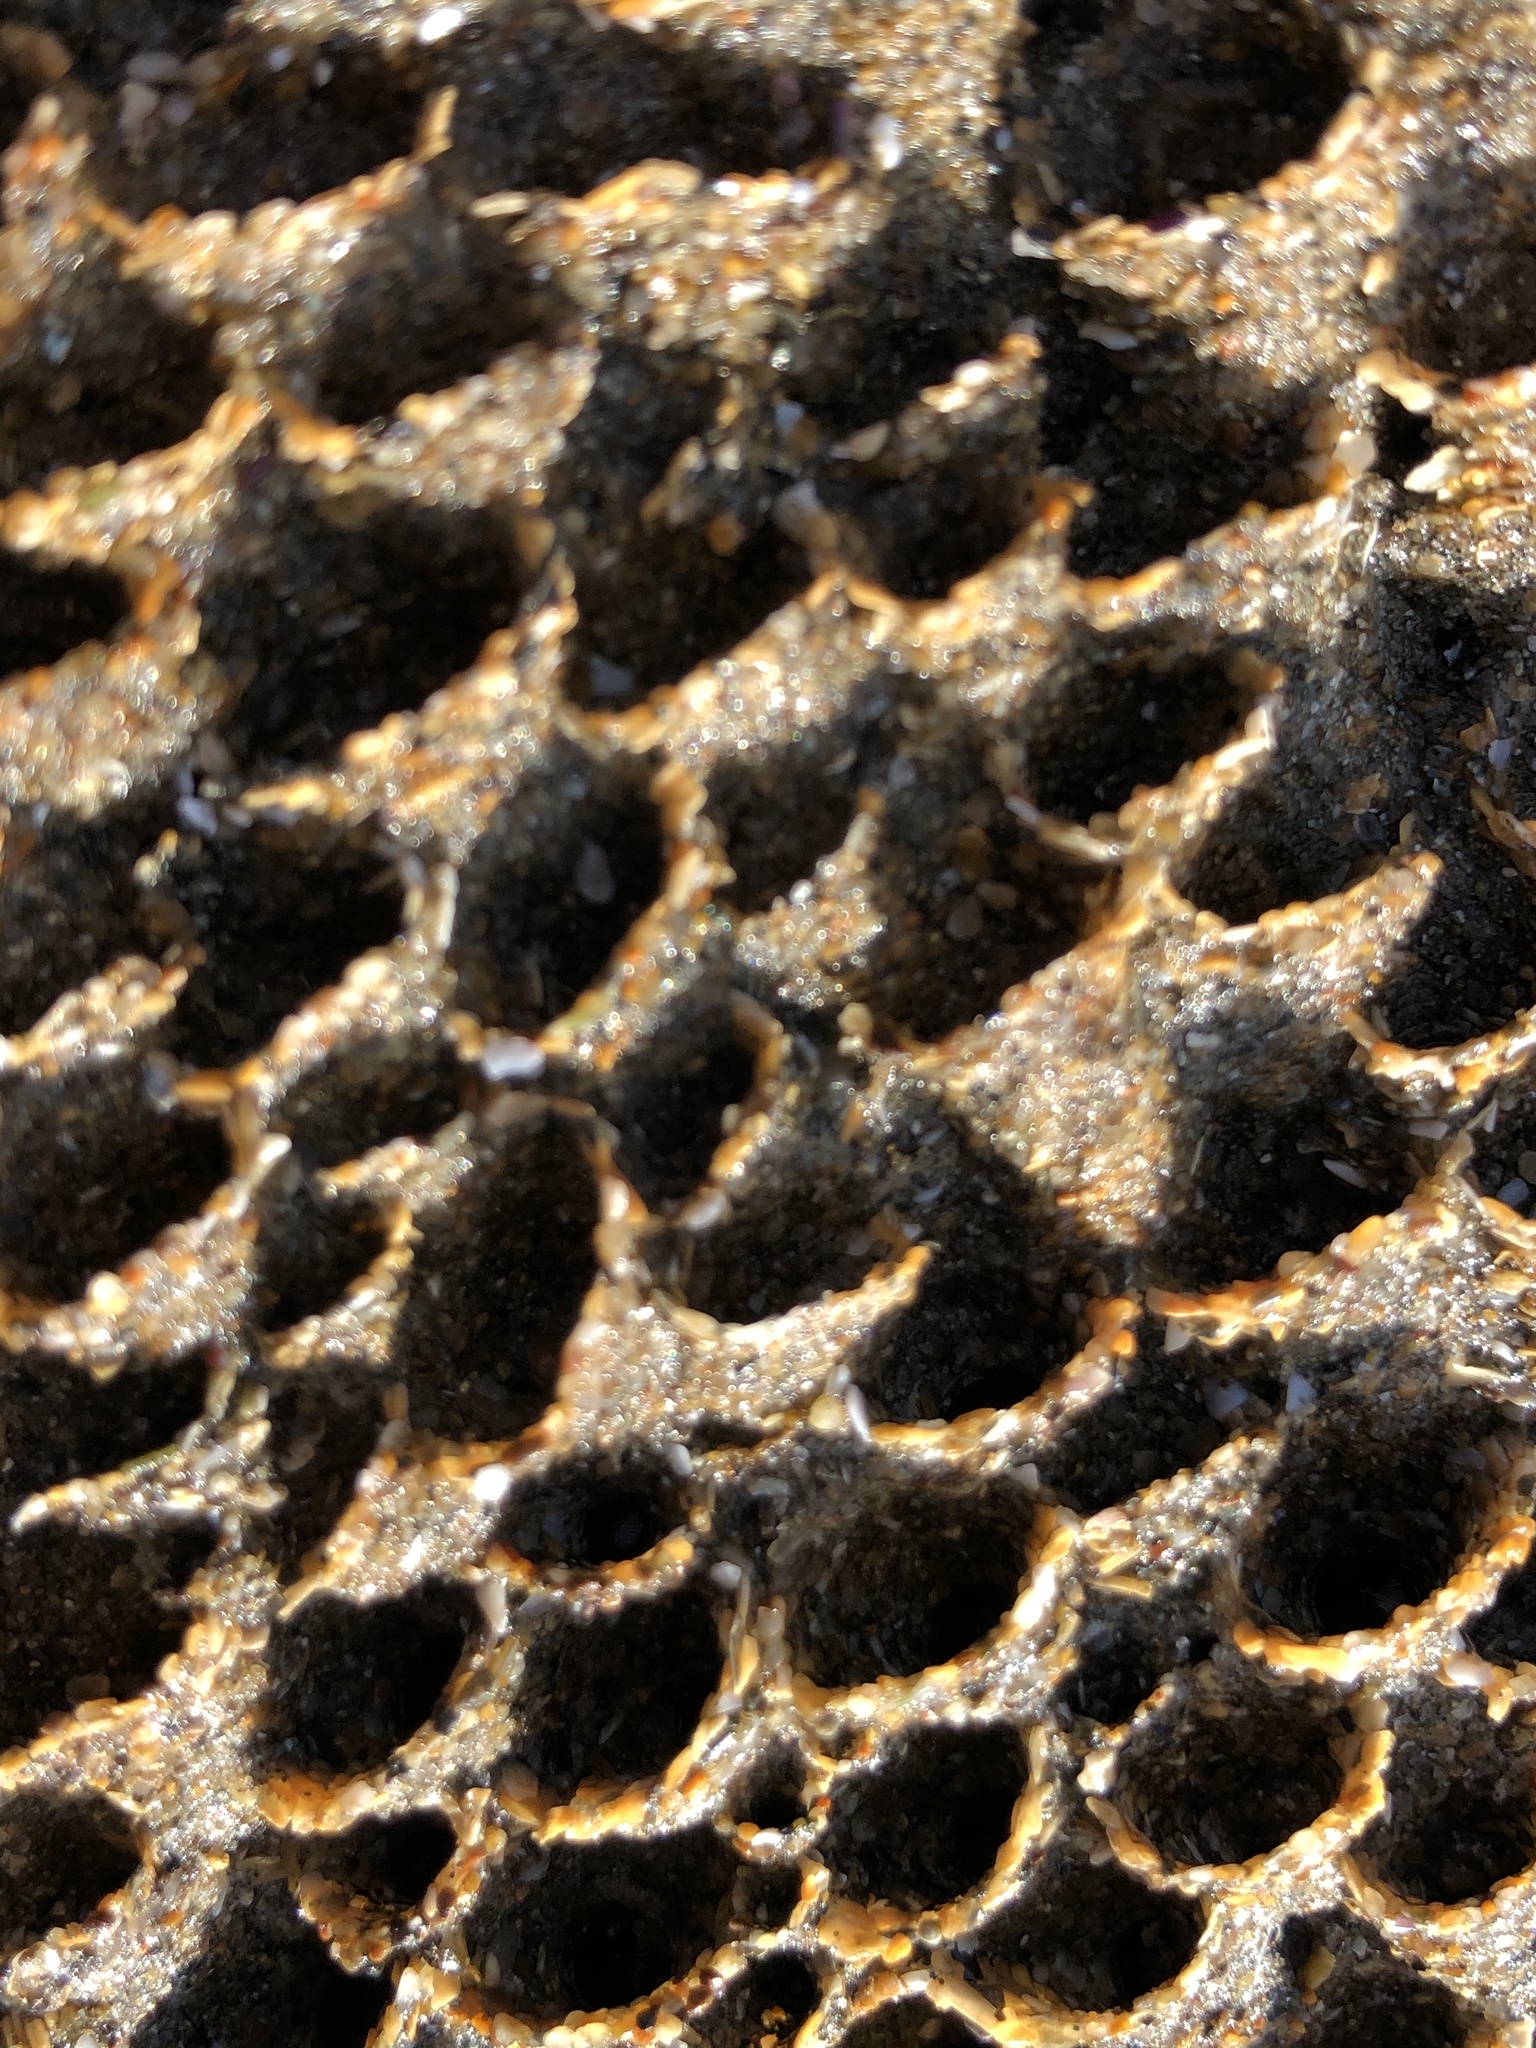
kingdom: Animalia
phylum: Annelida
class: Polychaeta
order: Sabellida
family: Sabellariidae
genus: Phragmatopoma
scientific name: Phragmatopoma californica
